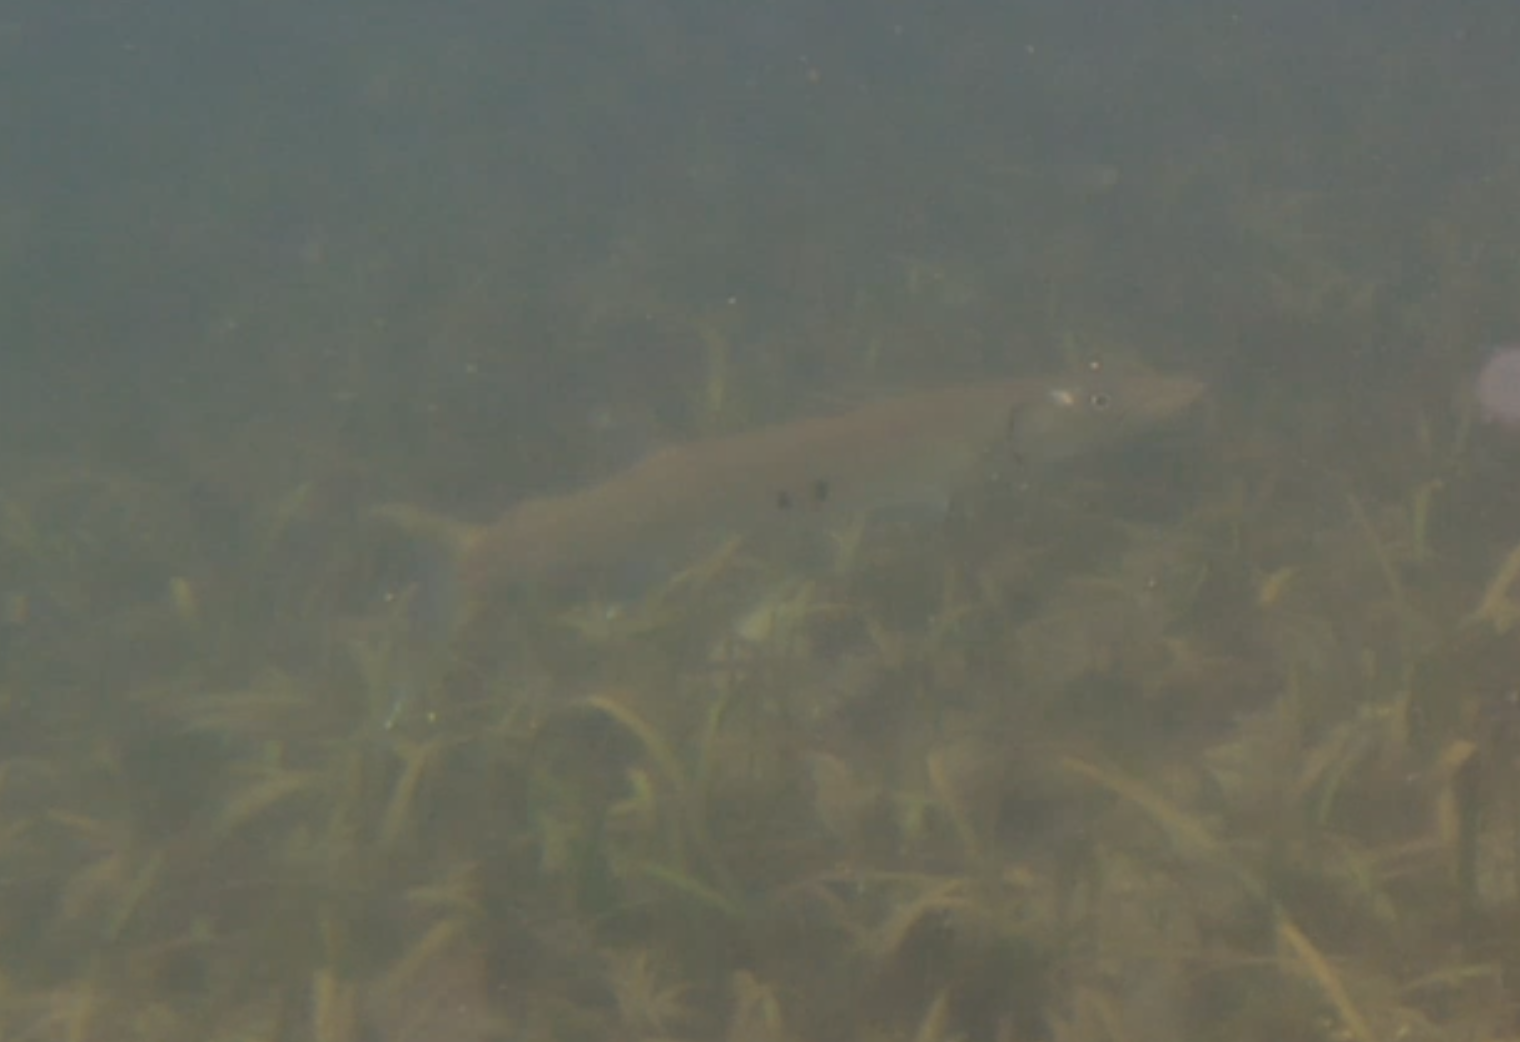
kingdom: Animalia
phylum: Chordata
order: Perciformes
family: Sphyraenidae
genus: Sphyraena
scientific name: Sphyraena barracuda
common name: Great barracuda
